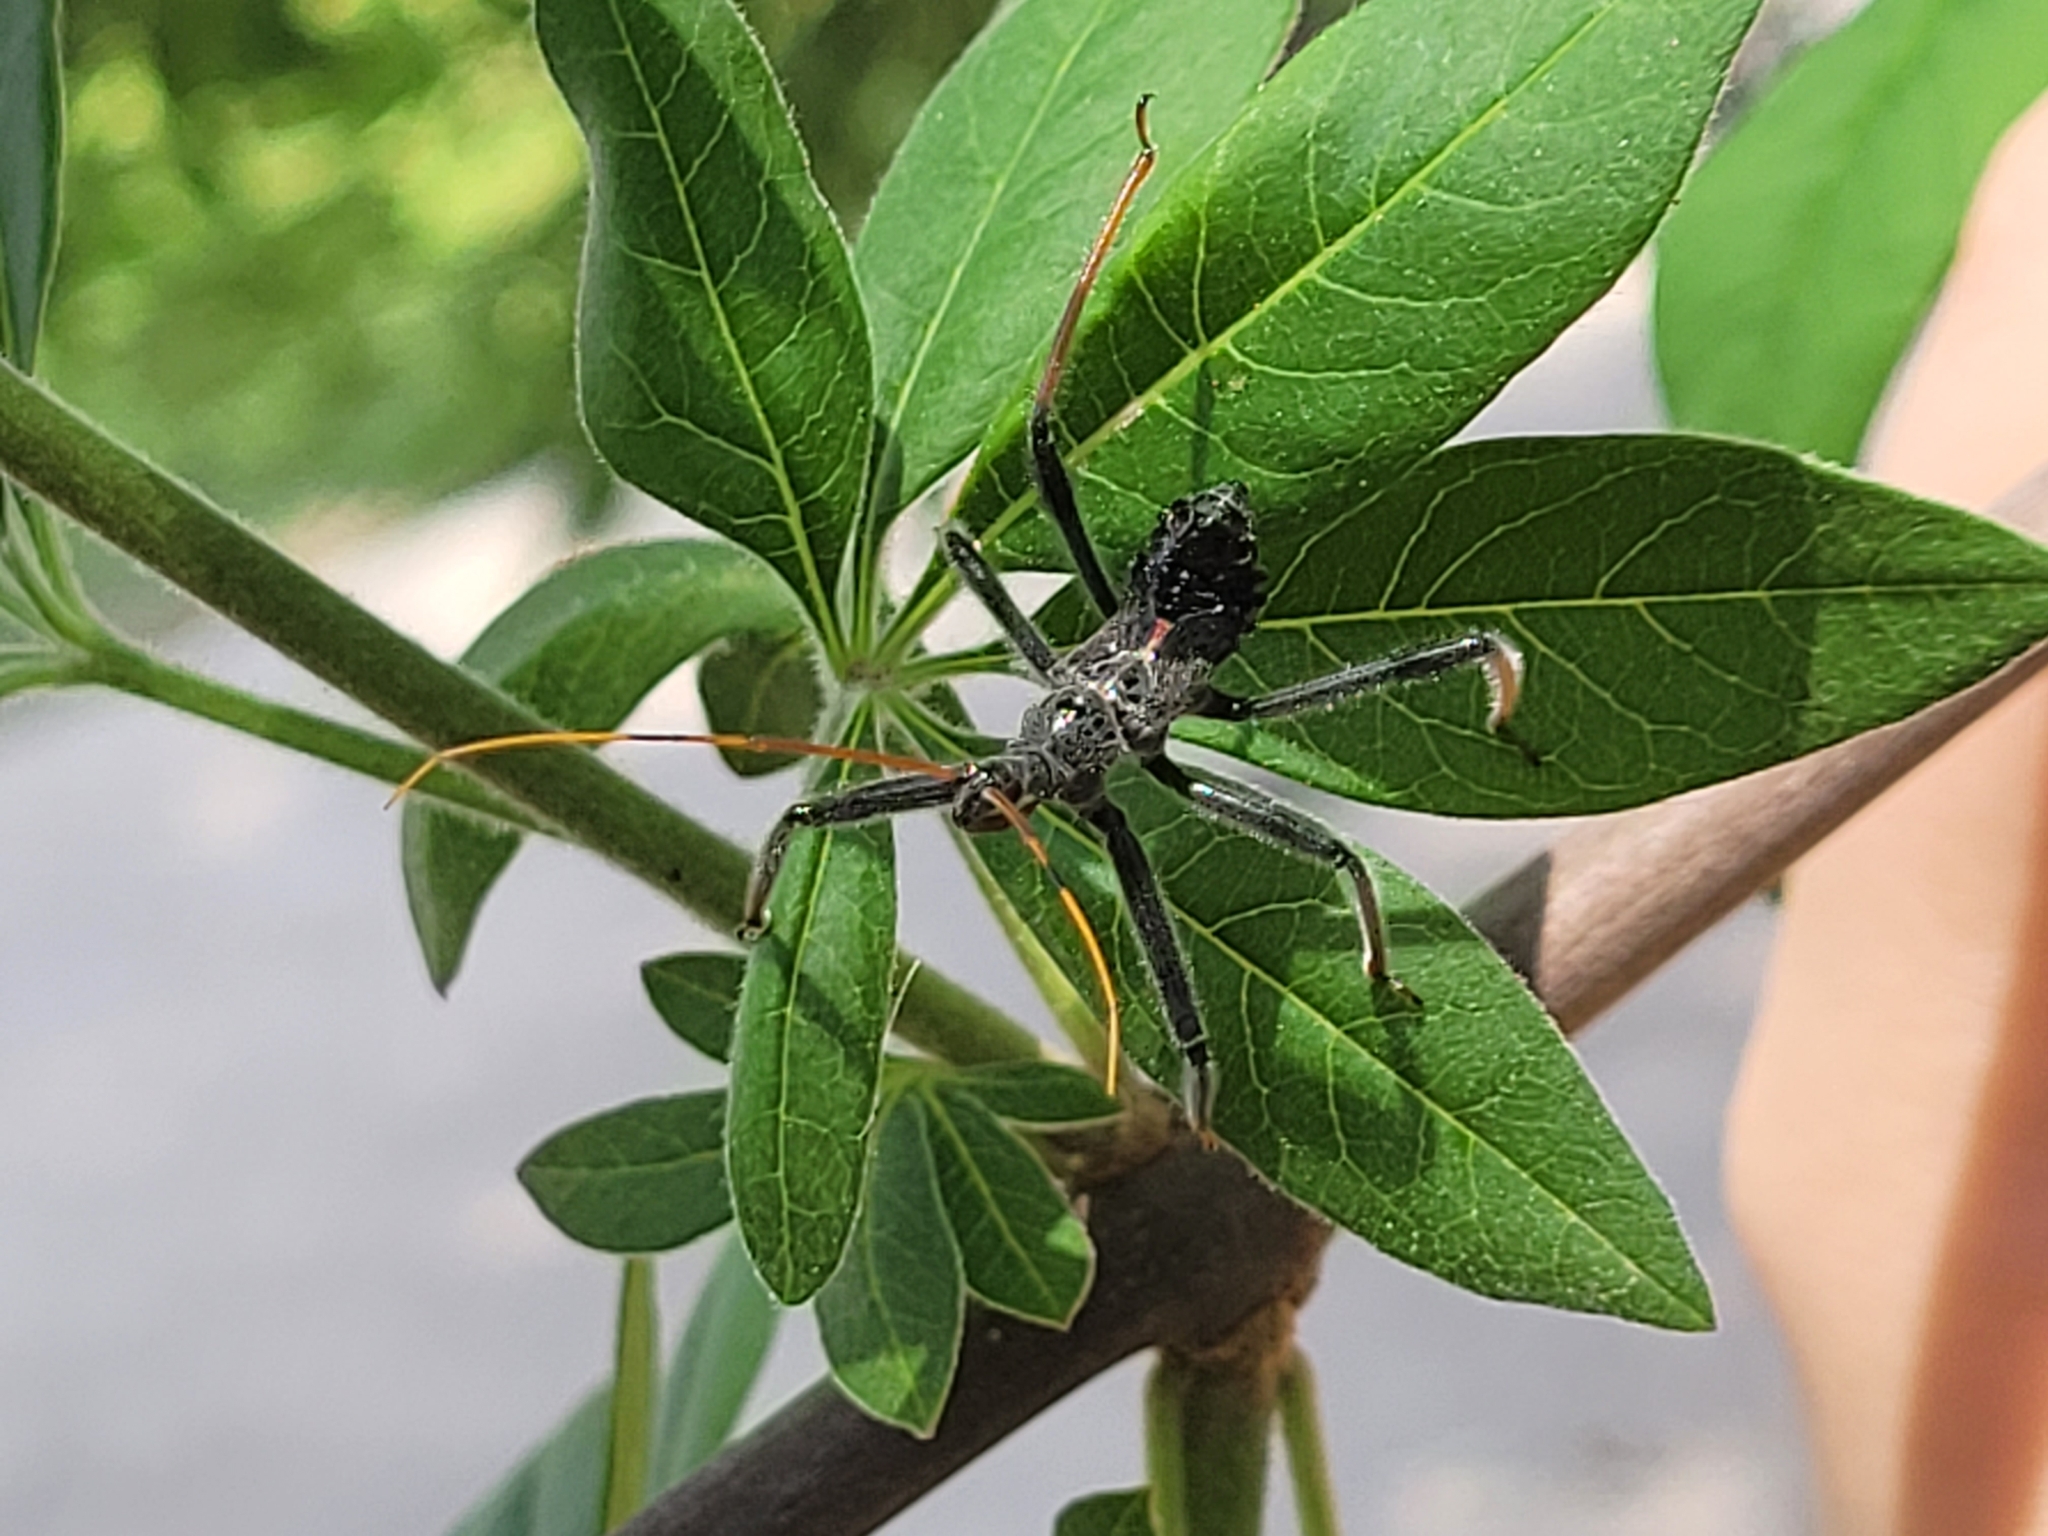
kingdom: Animalia
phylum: Arthropoda
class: Insecta
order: Hemiptera
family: Reduviidae
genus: Arilus
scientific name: Arilus cristatus
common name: North american wheel bug
